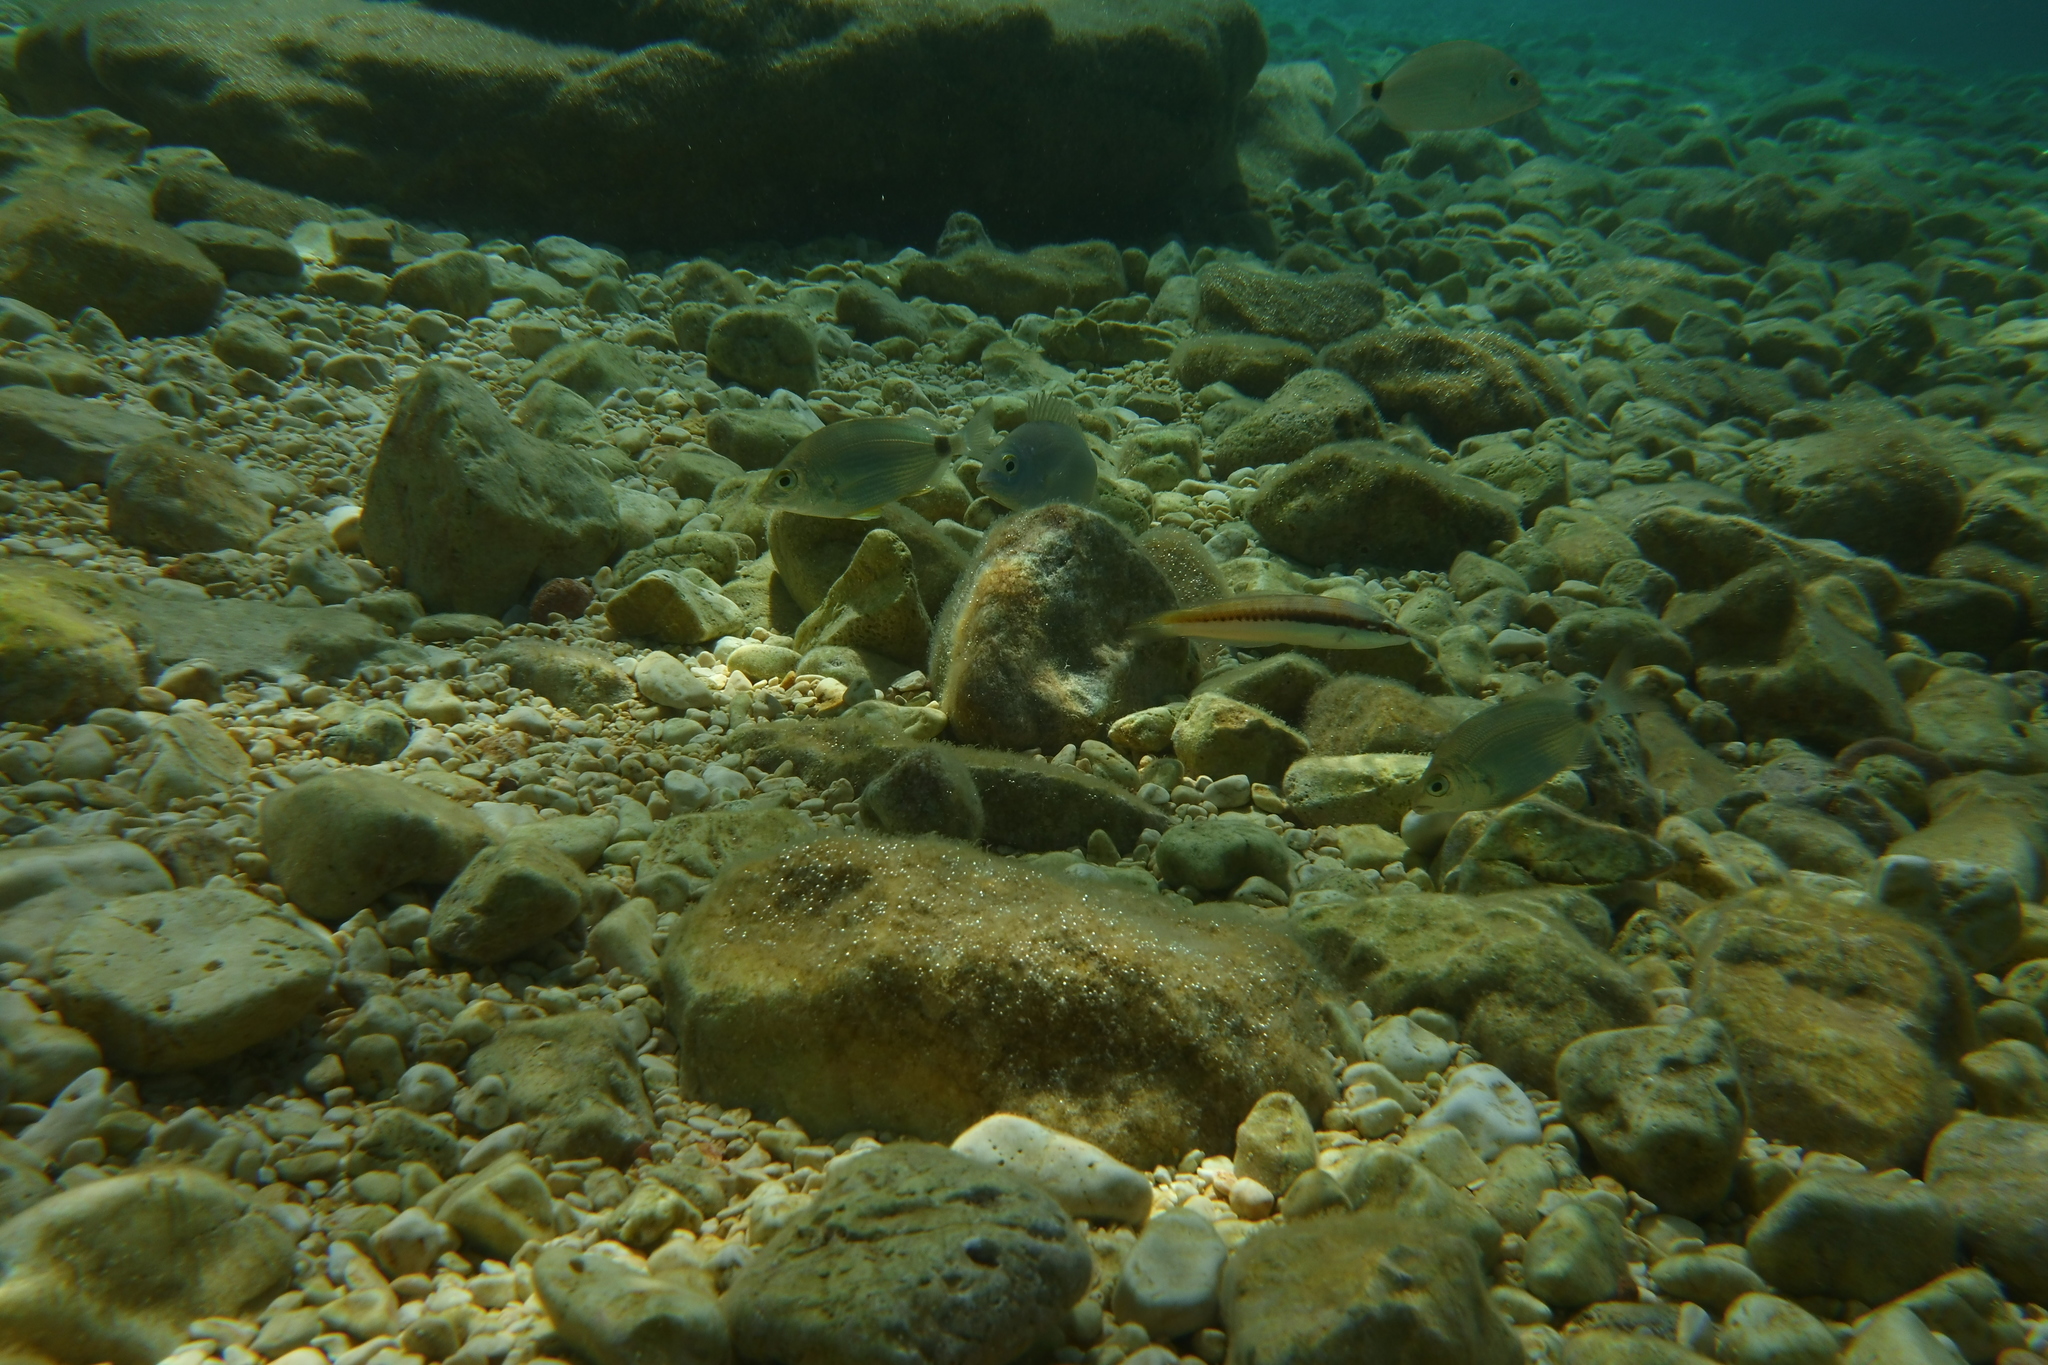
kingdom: Animalia
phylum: Chordata
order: Perciformes
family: Labridae
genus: Coris
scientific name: Coris julis
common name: Rainbow wrasse
